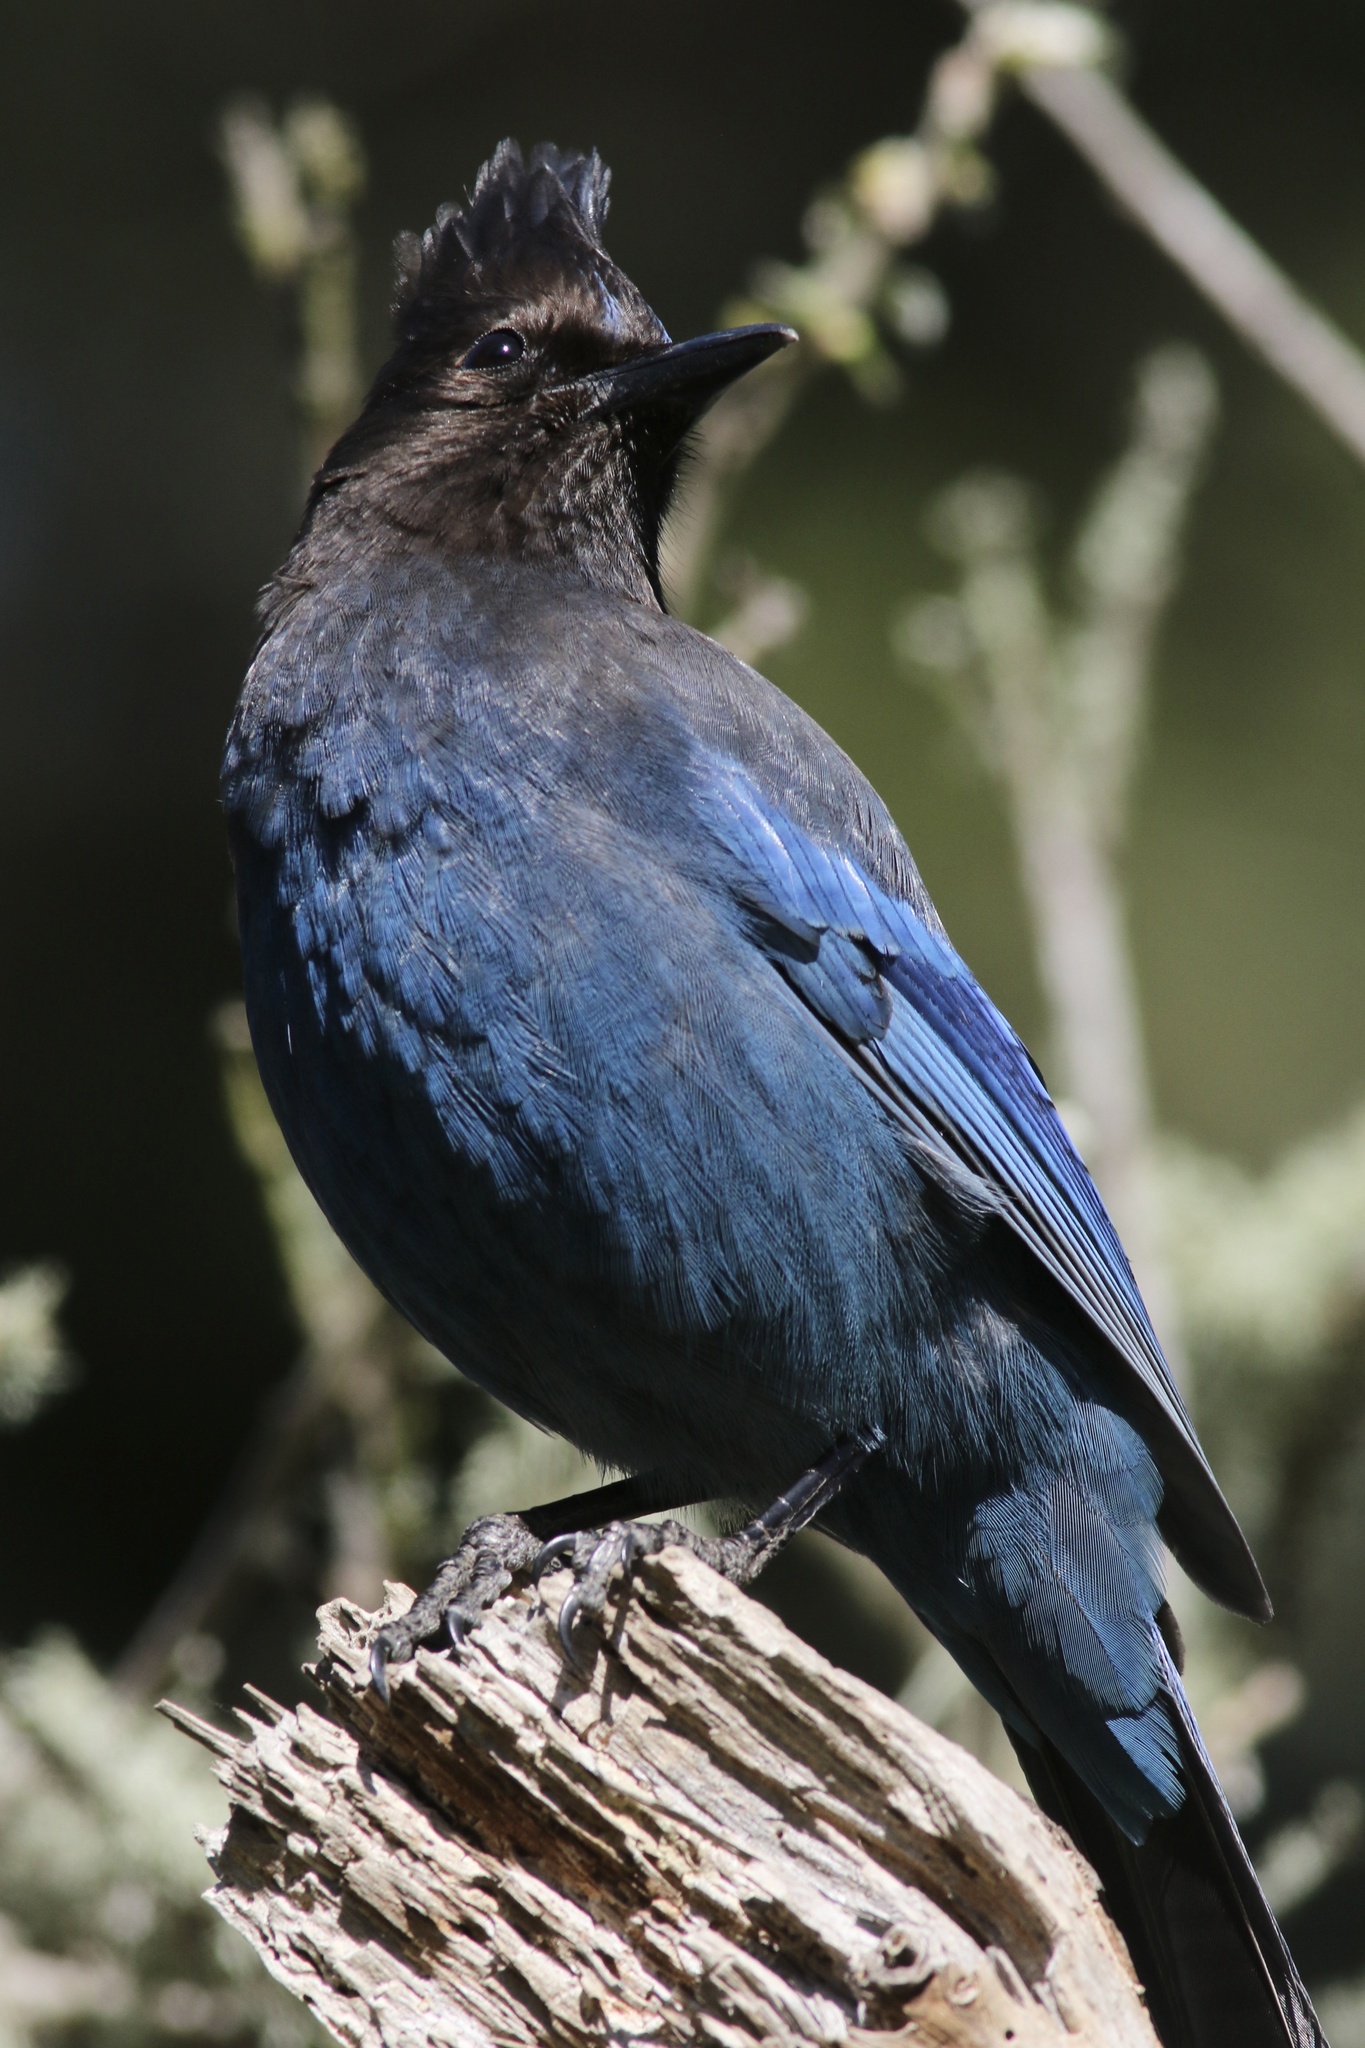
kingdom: Animalia
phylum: Chordata
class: Aves
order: Passeriformes
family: Corvidae
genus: Cyanocitta
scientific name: Cyanocitta stelleri
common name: Steller's jay
